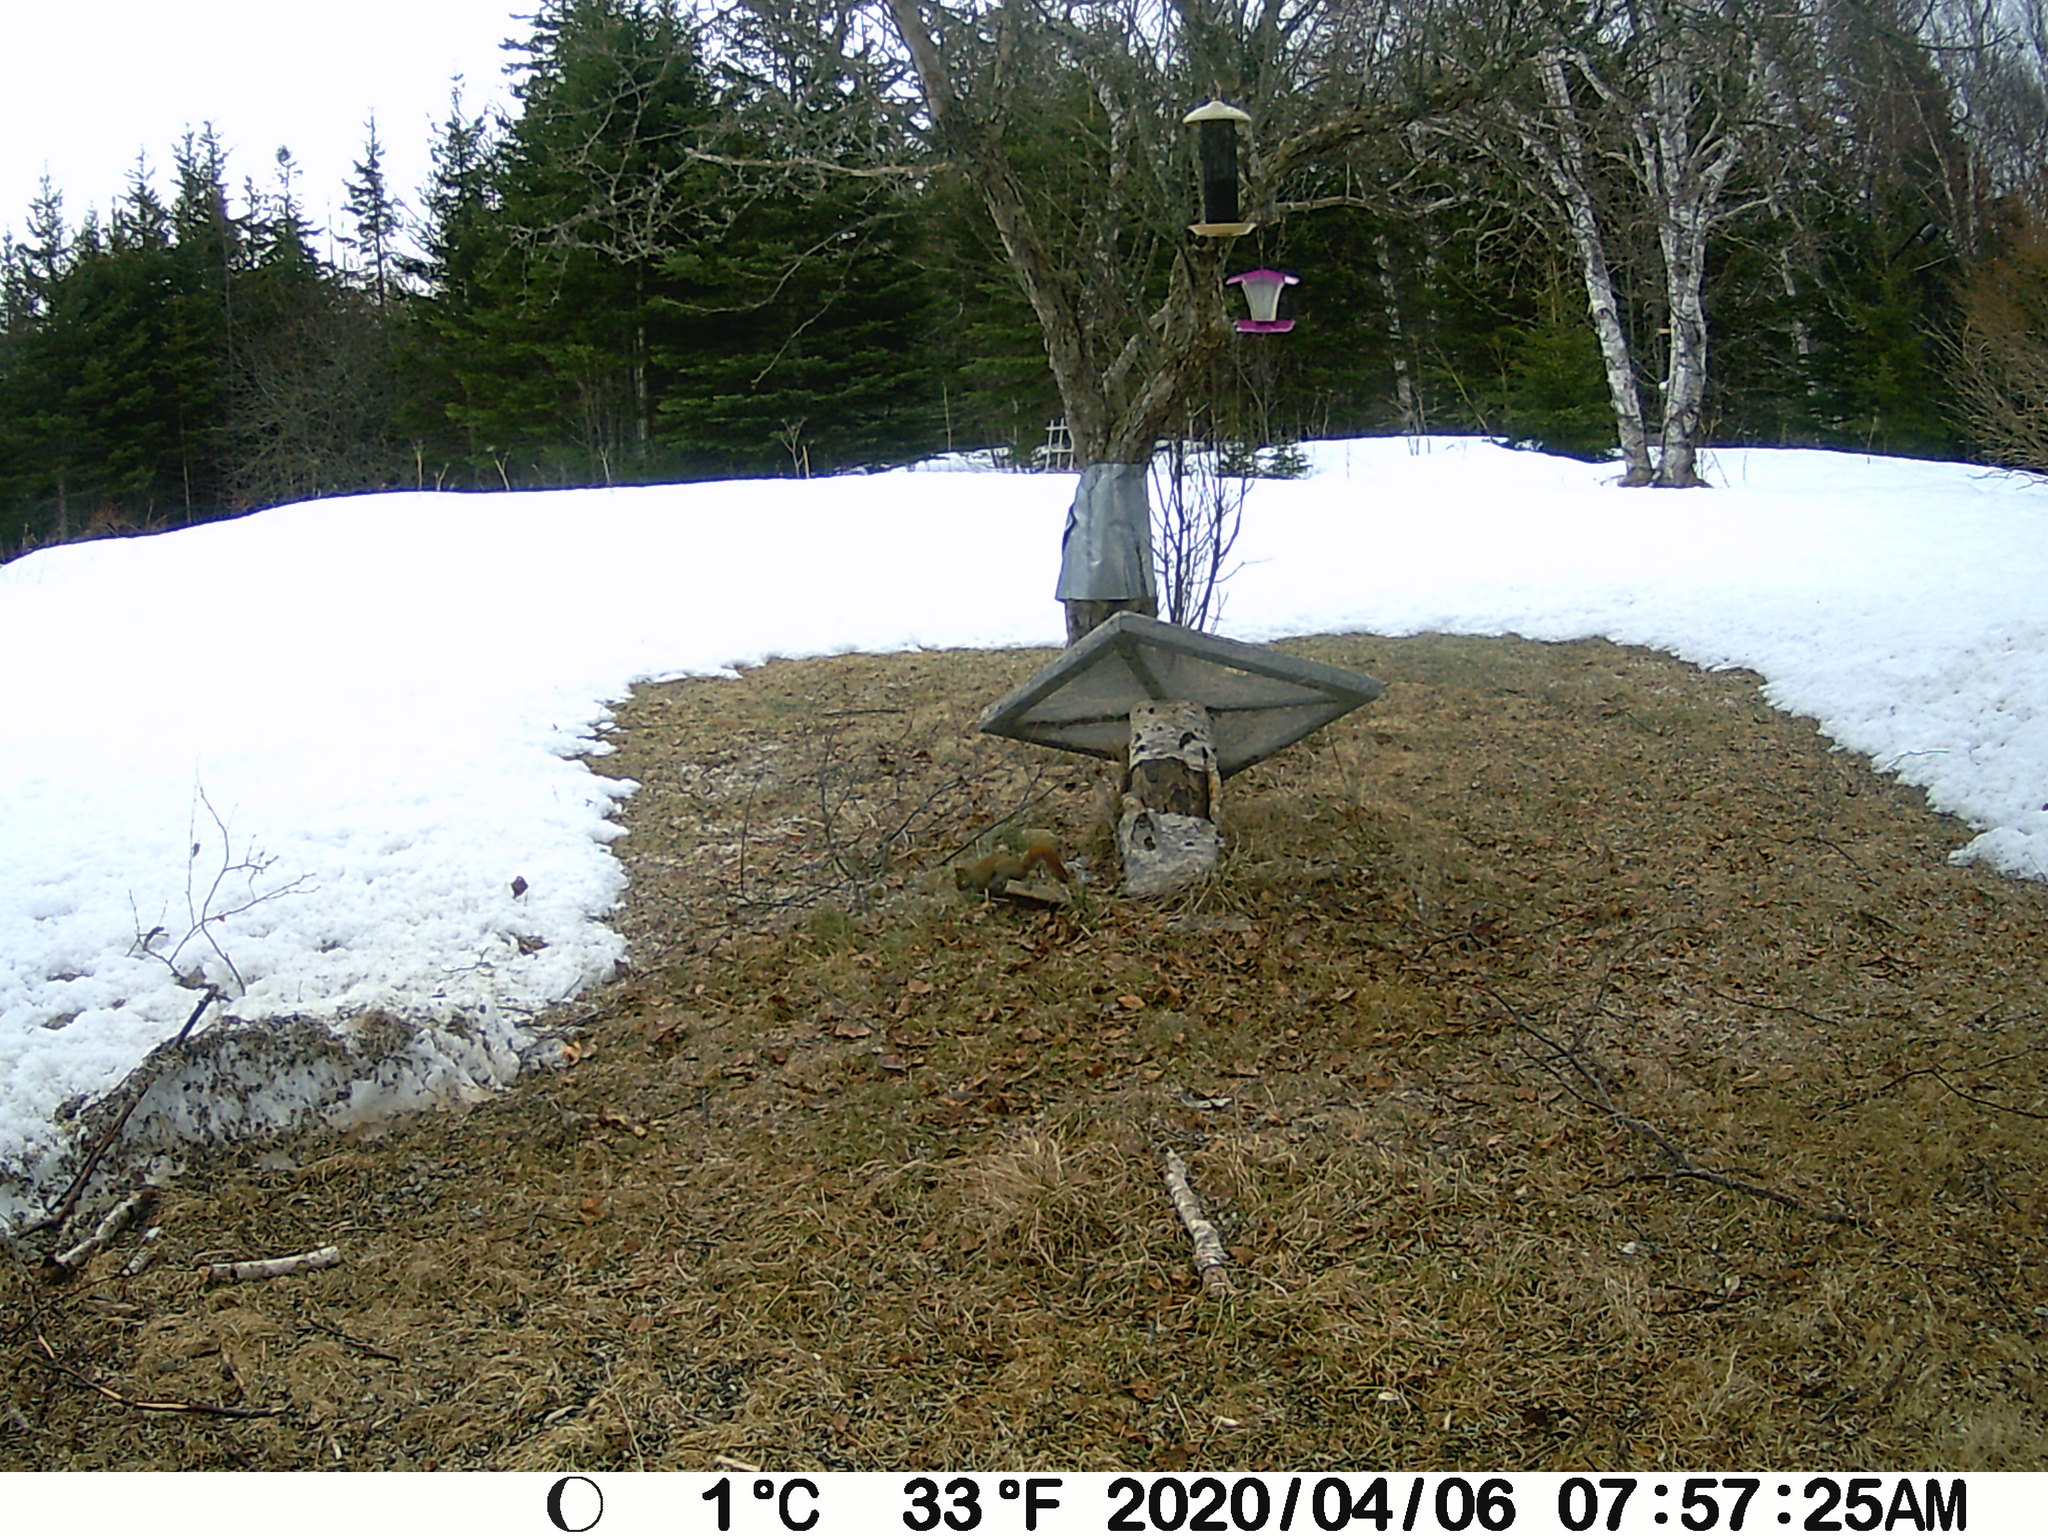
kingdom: Animalia
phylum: Chordata
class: Mammalia
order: Rodentia
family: Sciuridae
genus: Tamiasciurus
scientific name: Tamiasciurus hudsonicus
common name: Red squirrel
